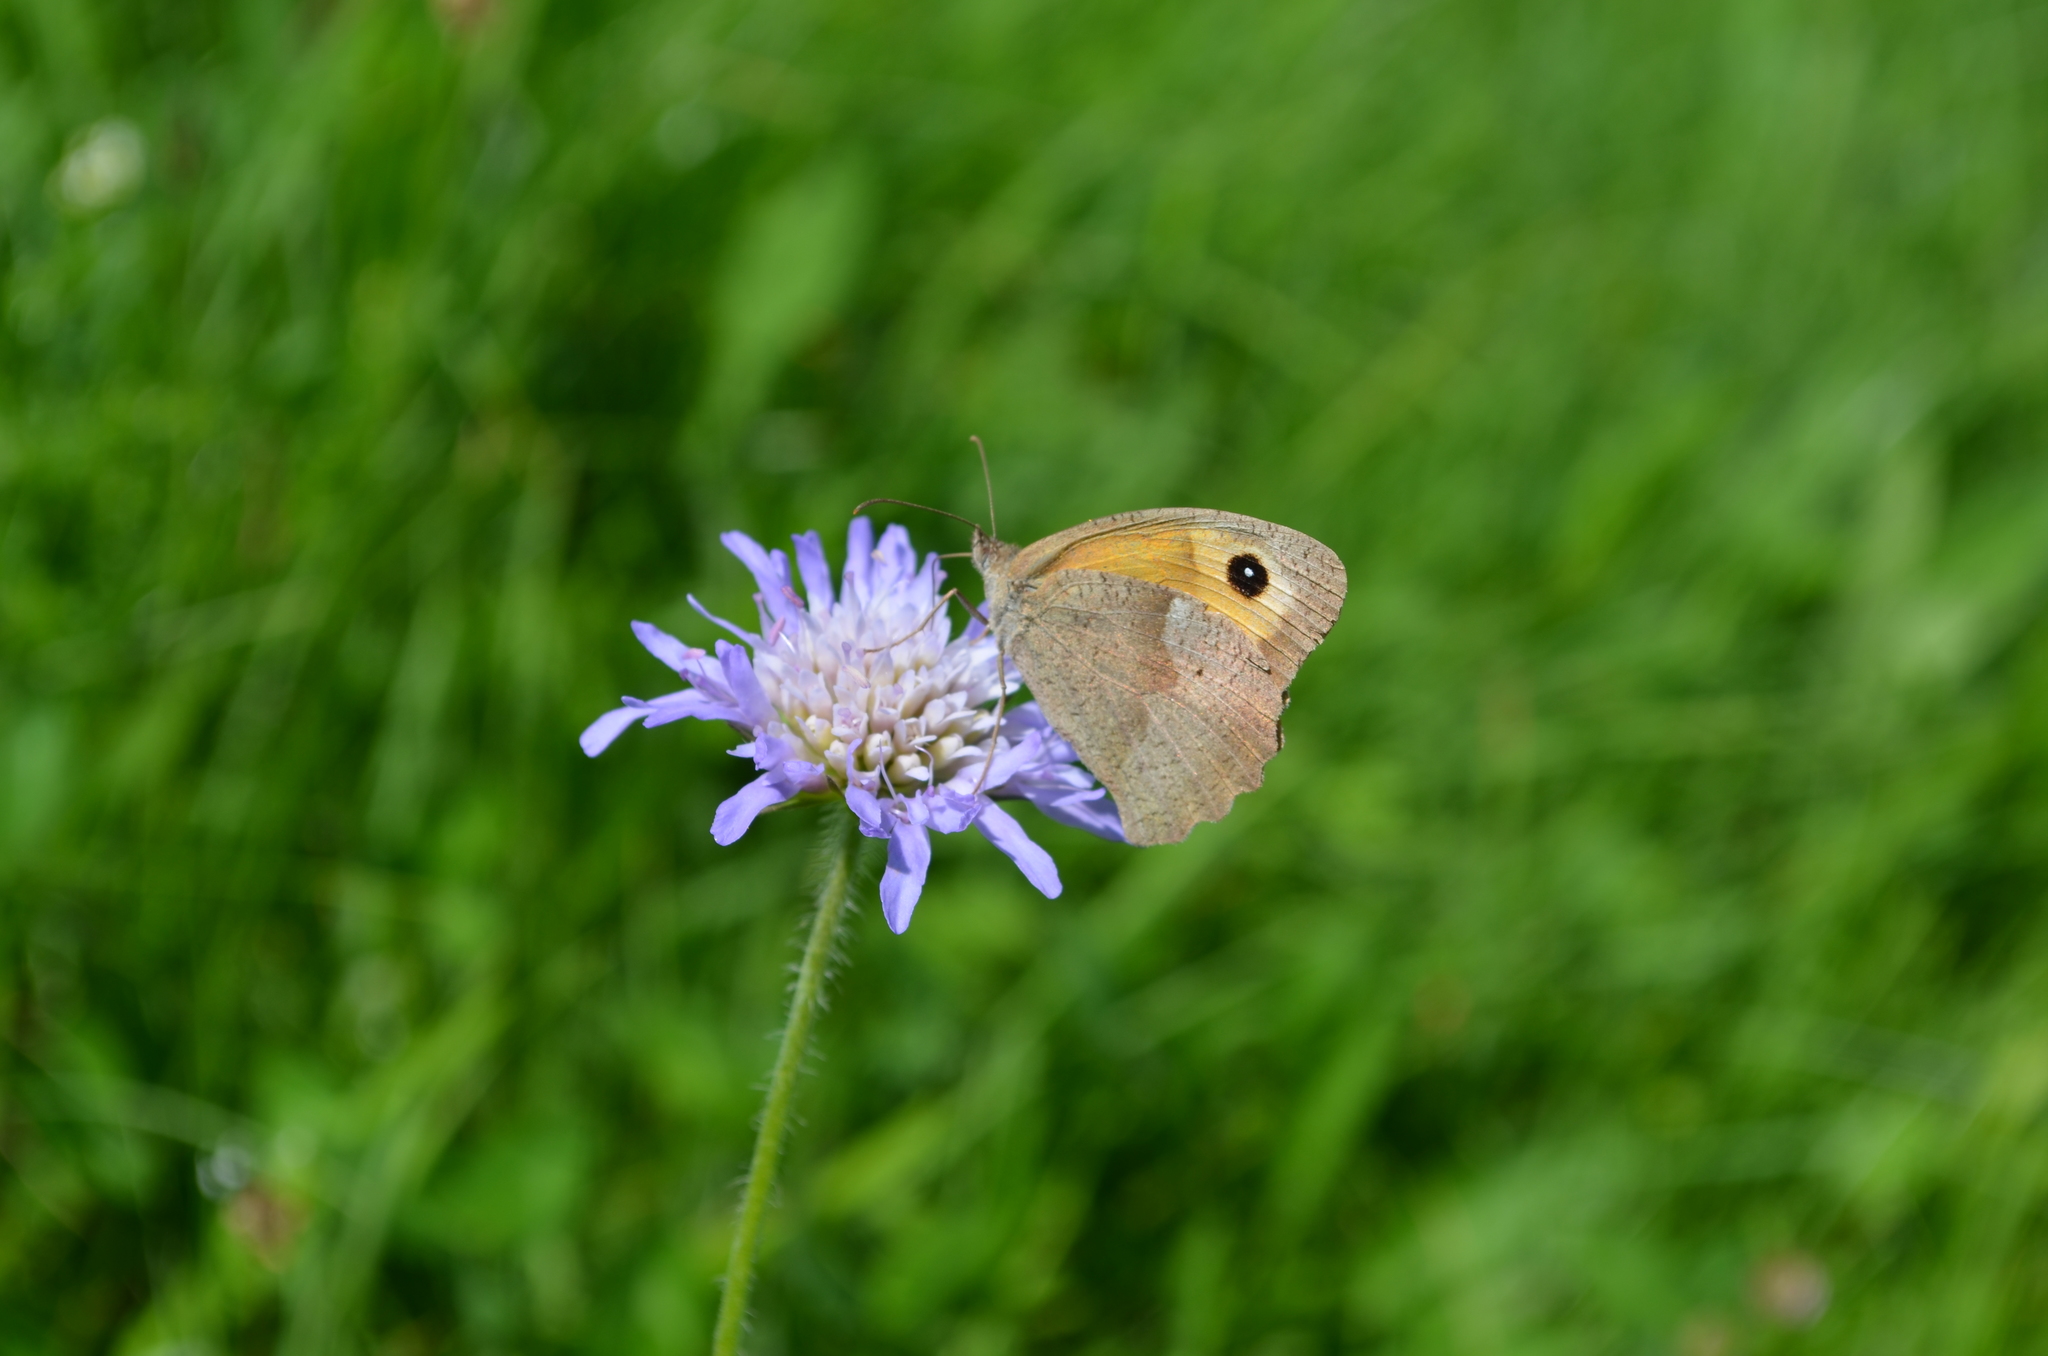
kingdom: Animalia
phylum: Arthropoda
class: Insecta
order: Lepidoptera
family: Nymphalidae
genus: Maniola
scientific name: Maniola jurtina
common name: Meadow brown
